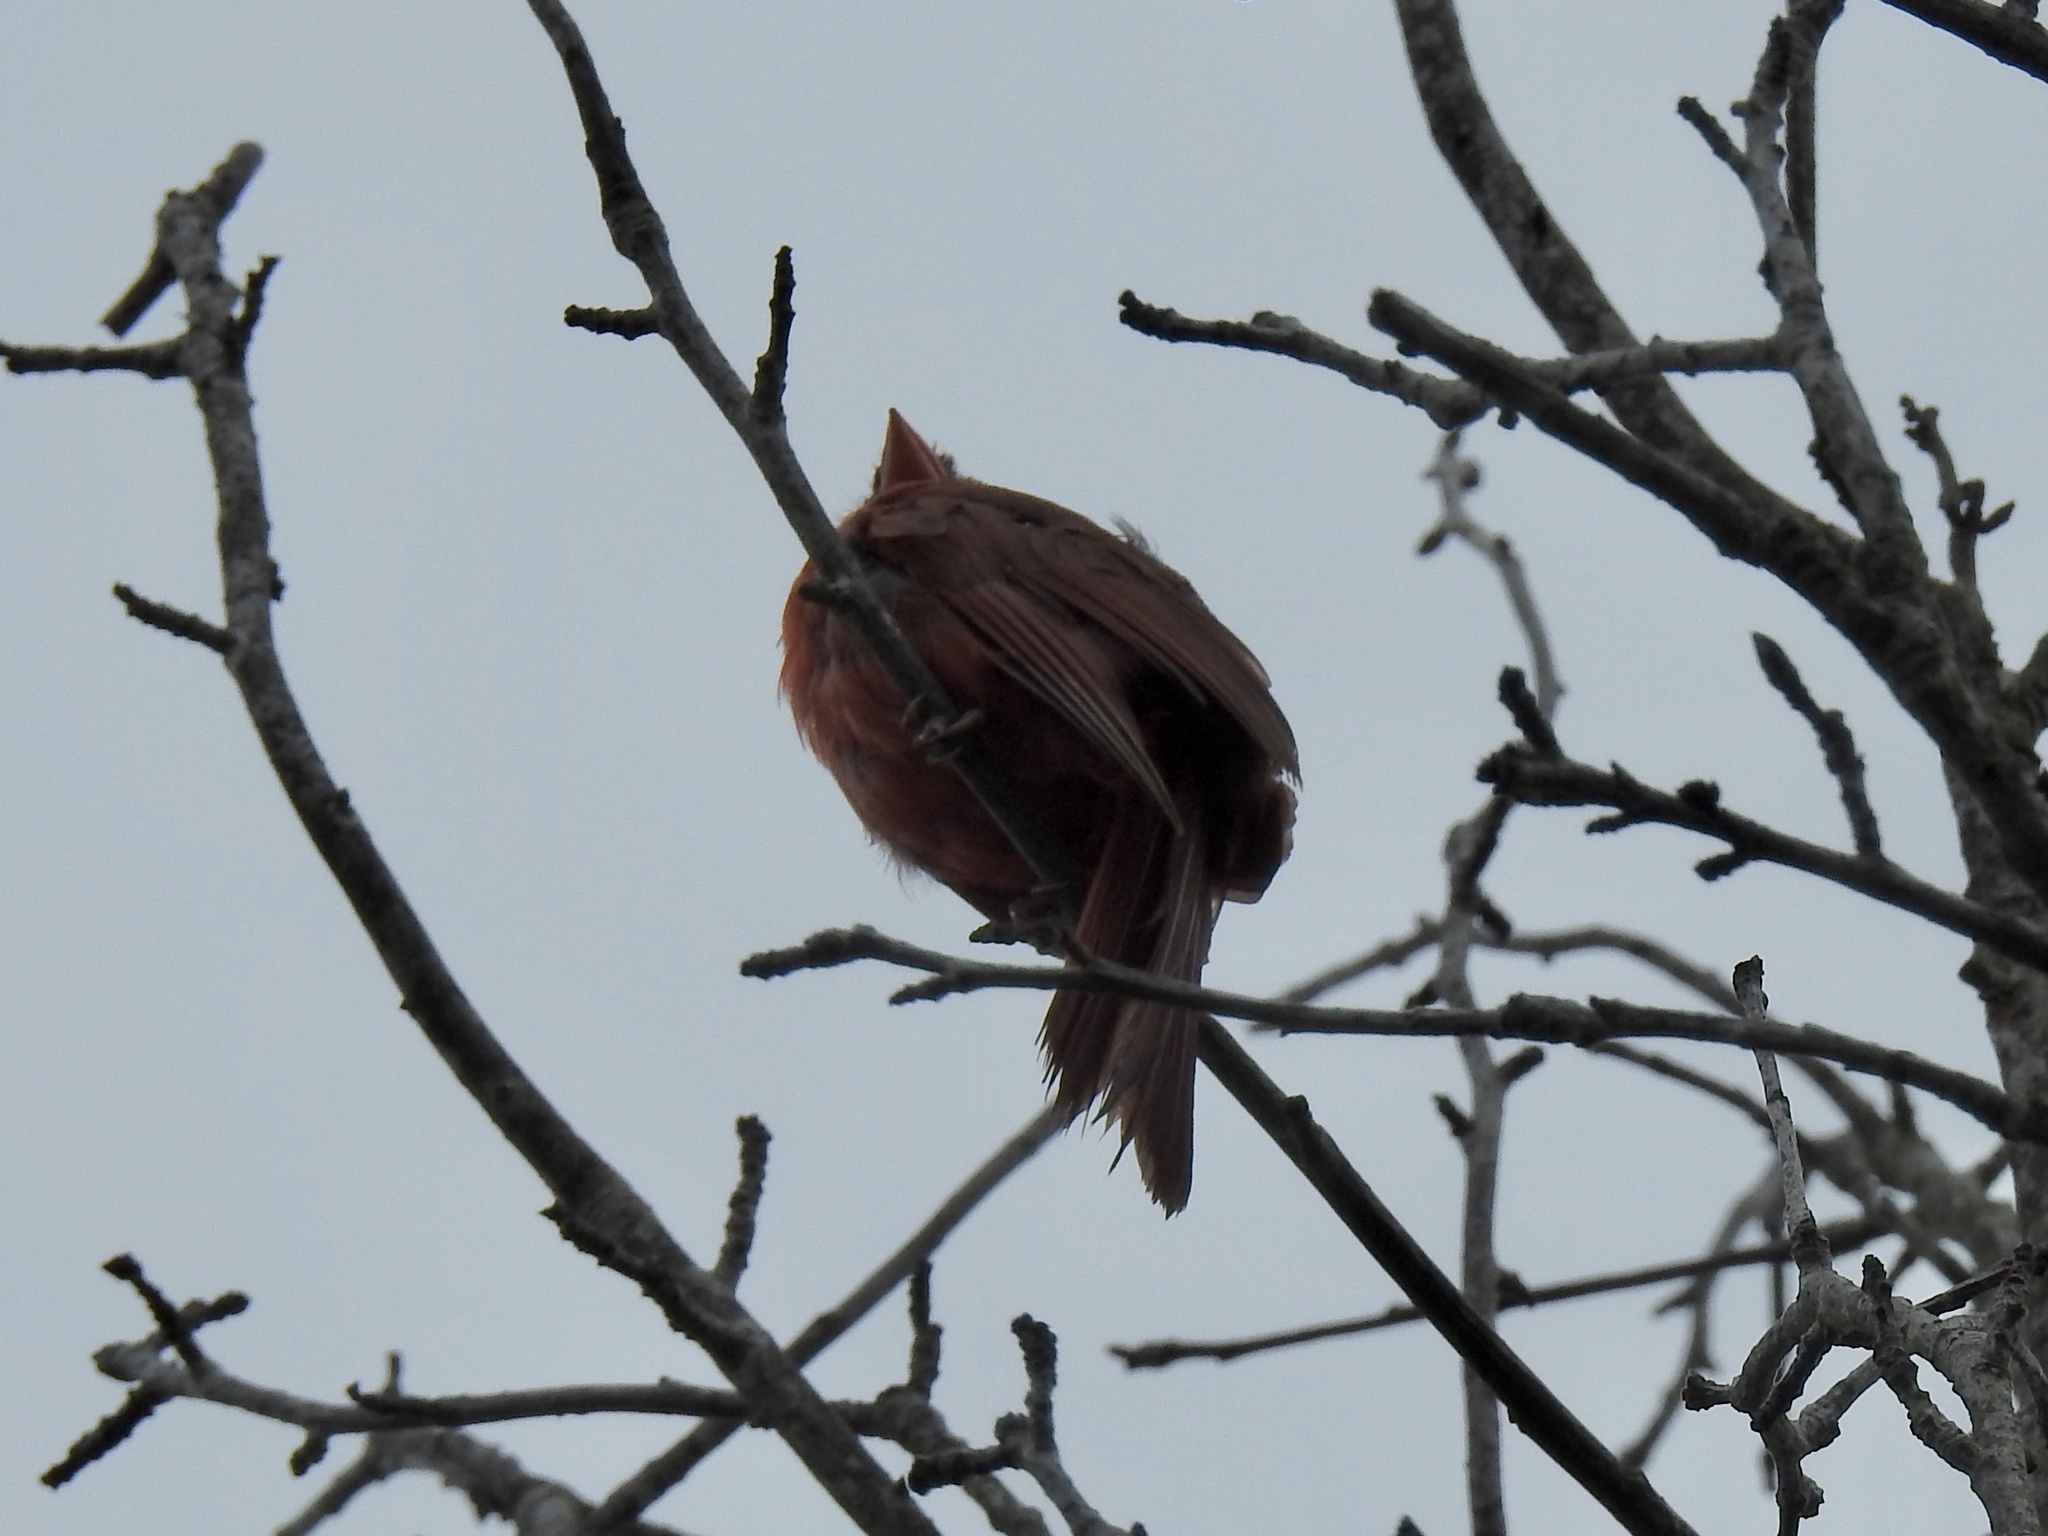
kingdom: Animalia
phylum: Chordata
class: Aves
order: Passeriformes
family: Cardinalidae
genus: Cardinalis
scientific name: Cardinalis cardinalis
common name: Northern cardinal
